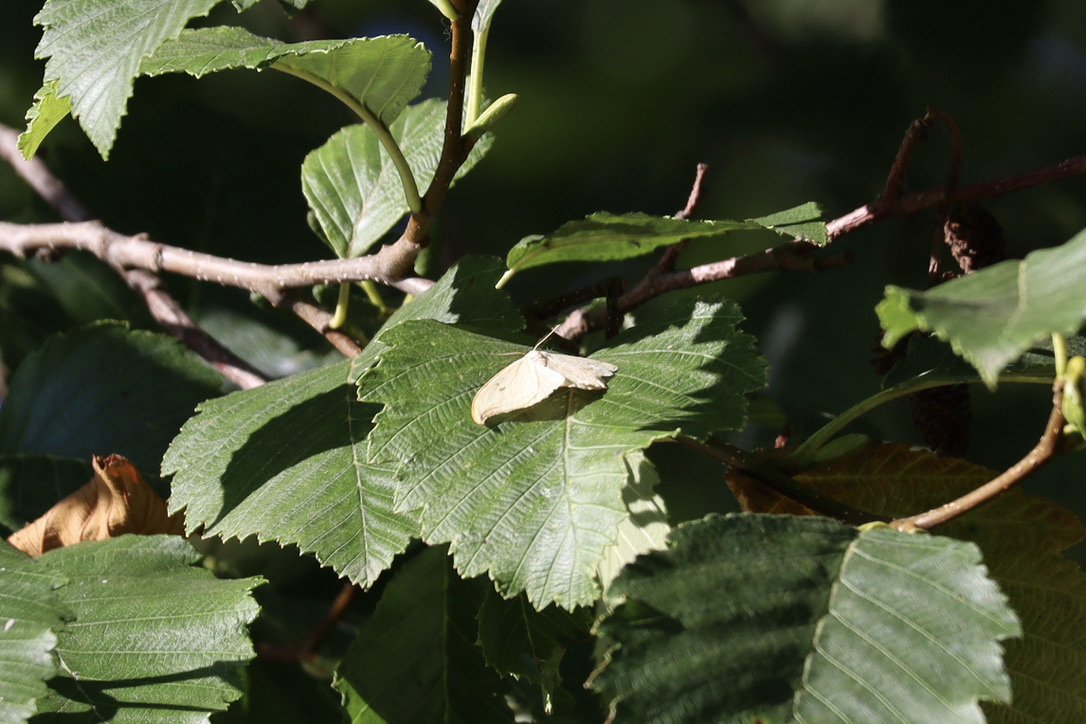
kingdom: Animalia
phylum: Arthropoda
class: Insecta
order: Lepidoptera
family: Drepanidae
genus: Drepana
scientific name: Drepana arcuata
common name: Arched hooktip moth
